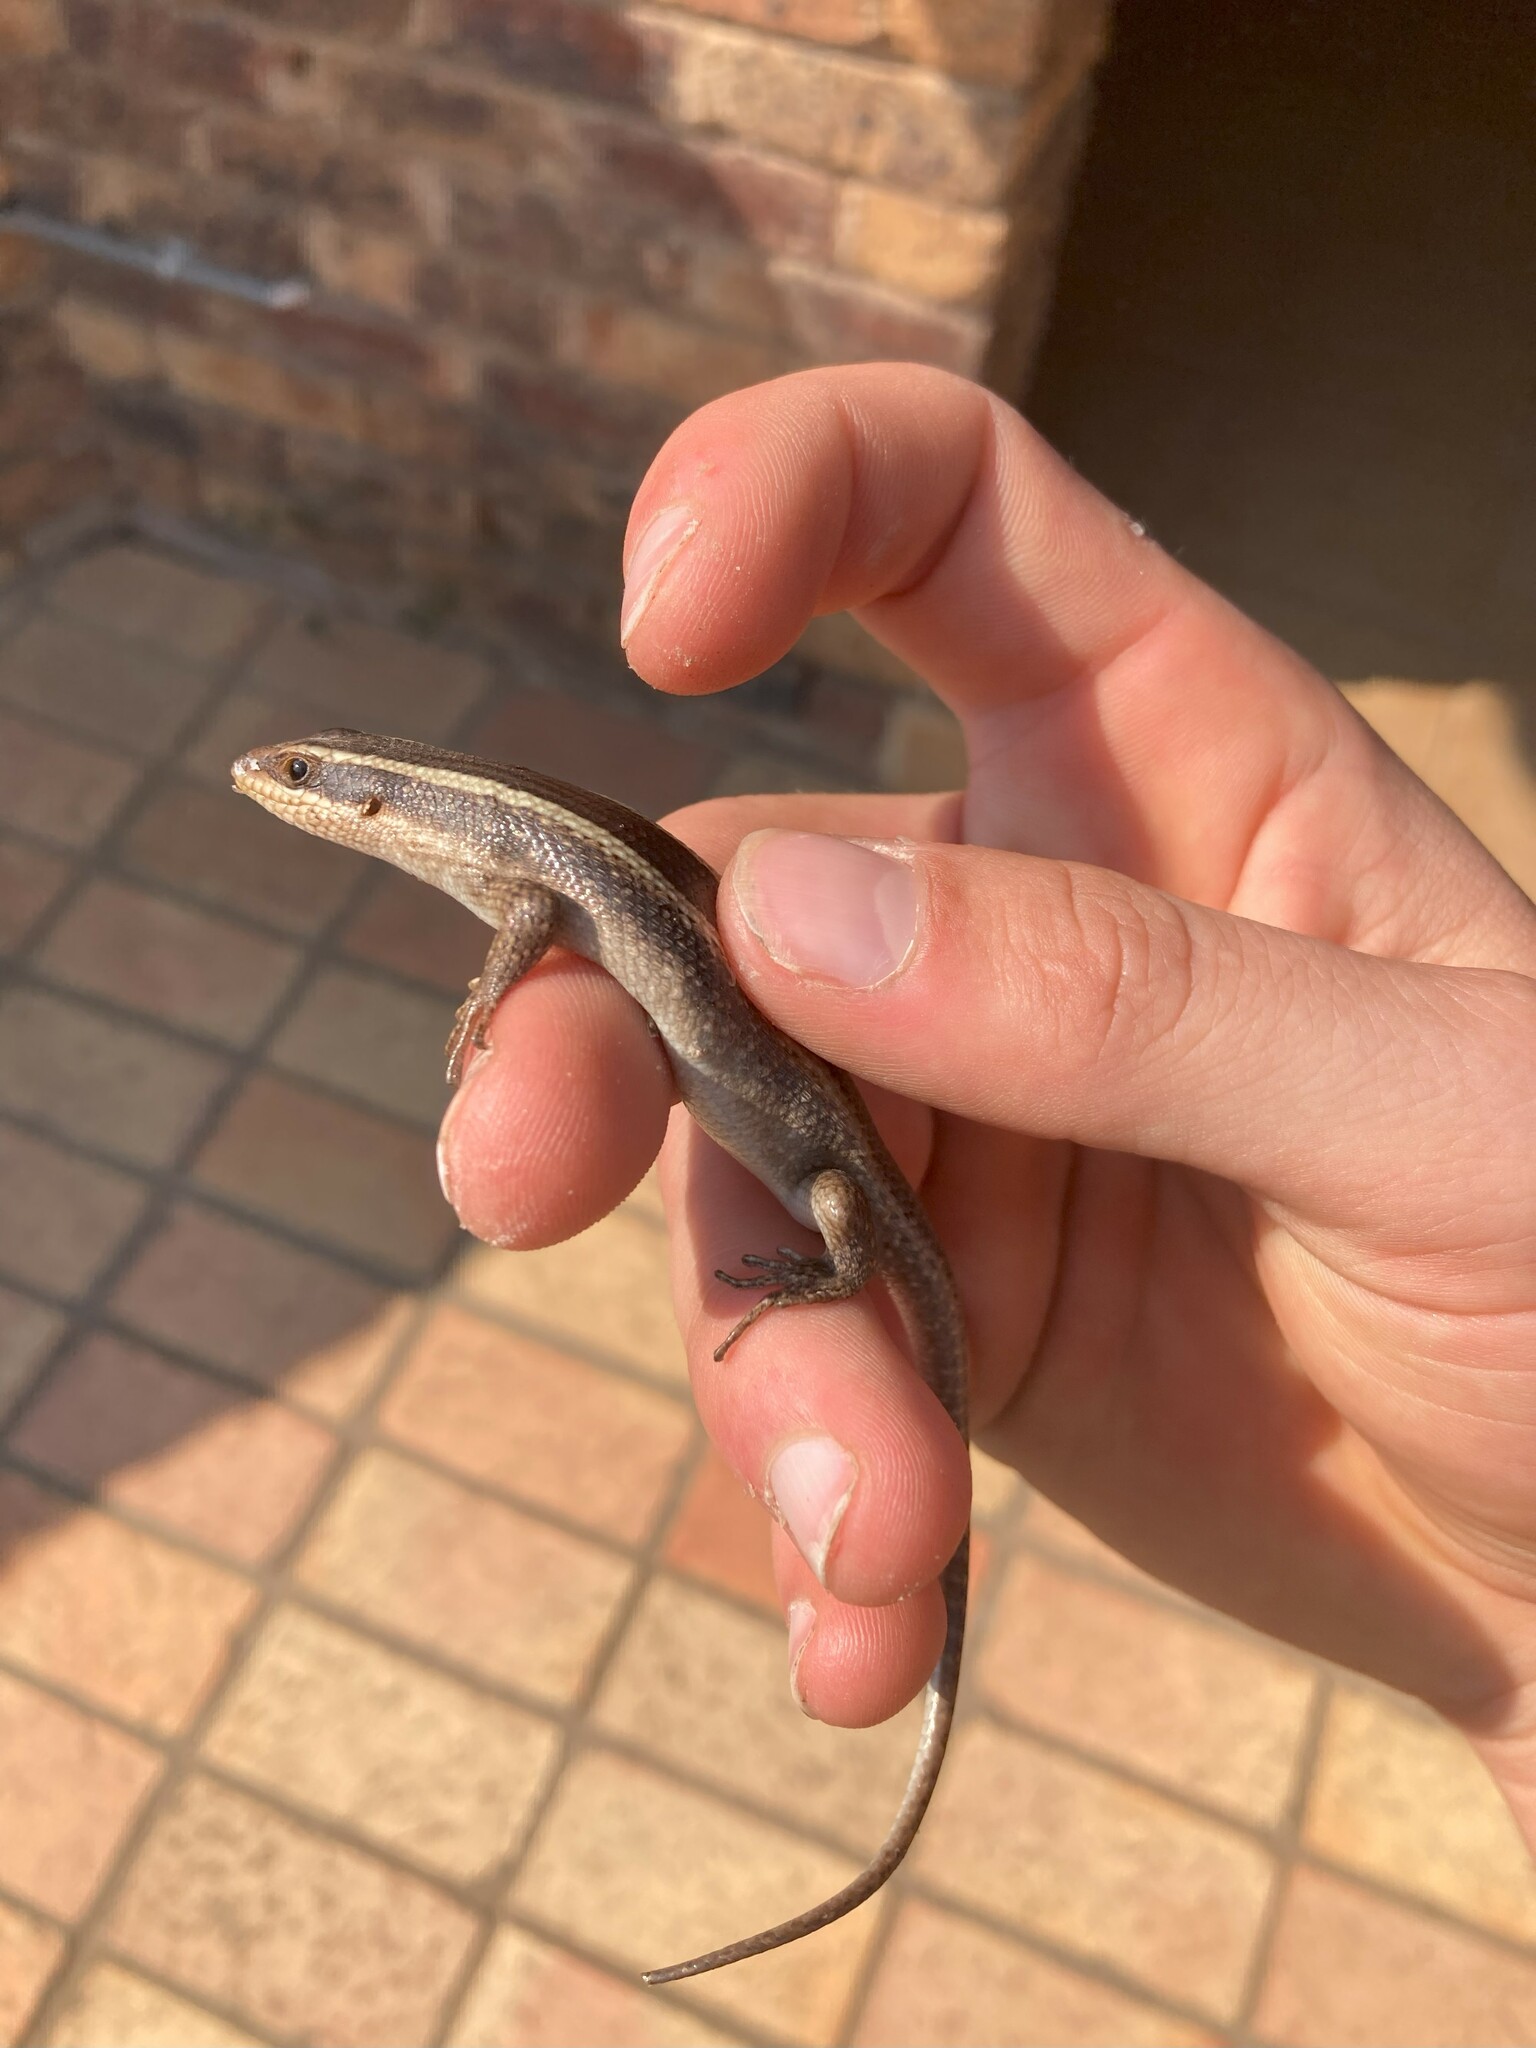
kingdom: Animalia
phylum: Chordata
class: Squamata
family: Scincidae
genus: Trachylepis
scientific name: Trachylepis striata
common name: African striped mabuya
